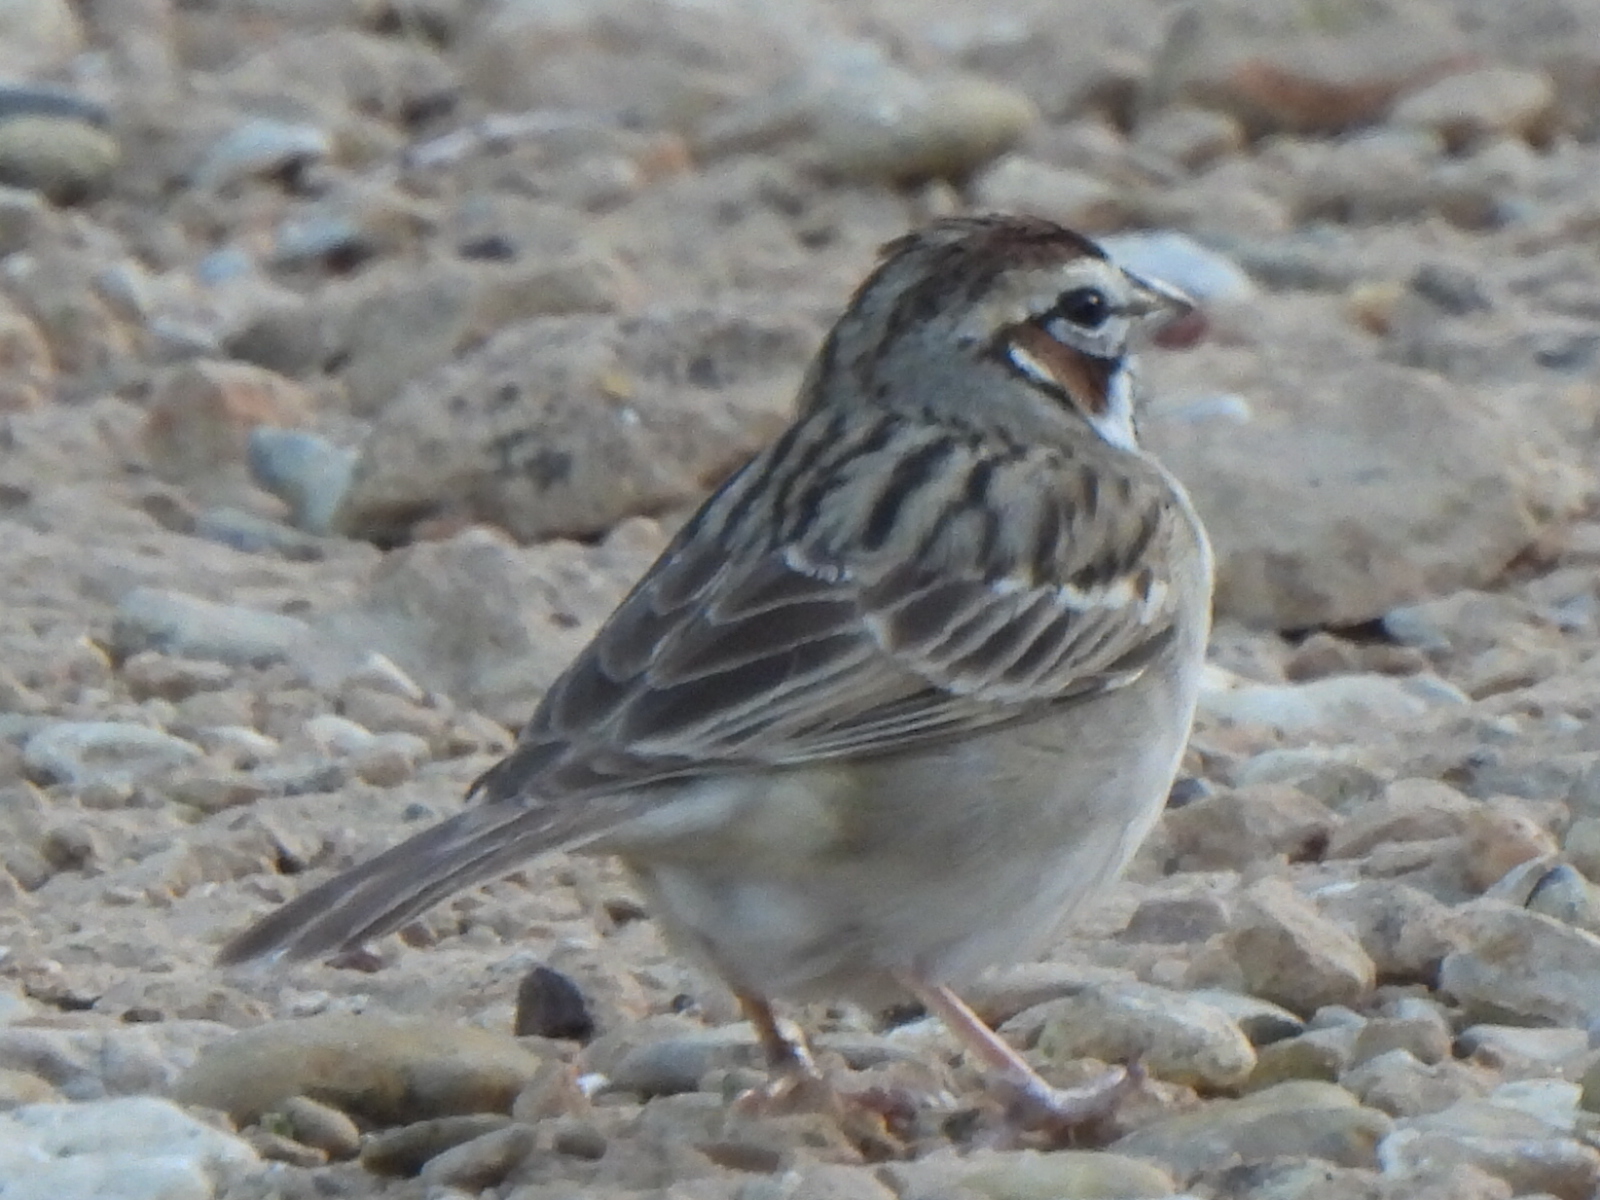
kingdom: Animalia
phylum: Chordata
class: Aves
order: Passeriformes
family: Passerellidae
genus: Chondestes
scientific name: Chondestes grammacus
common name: Lark sparrow
